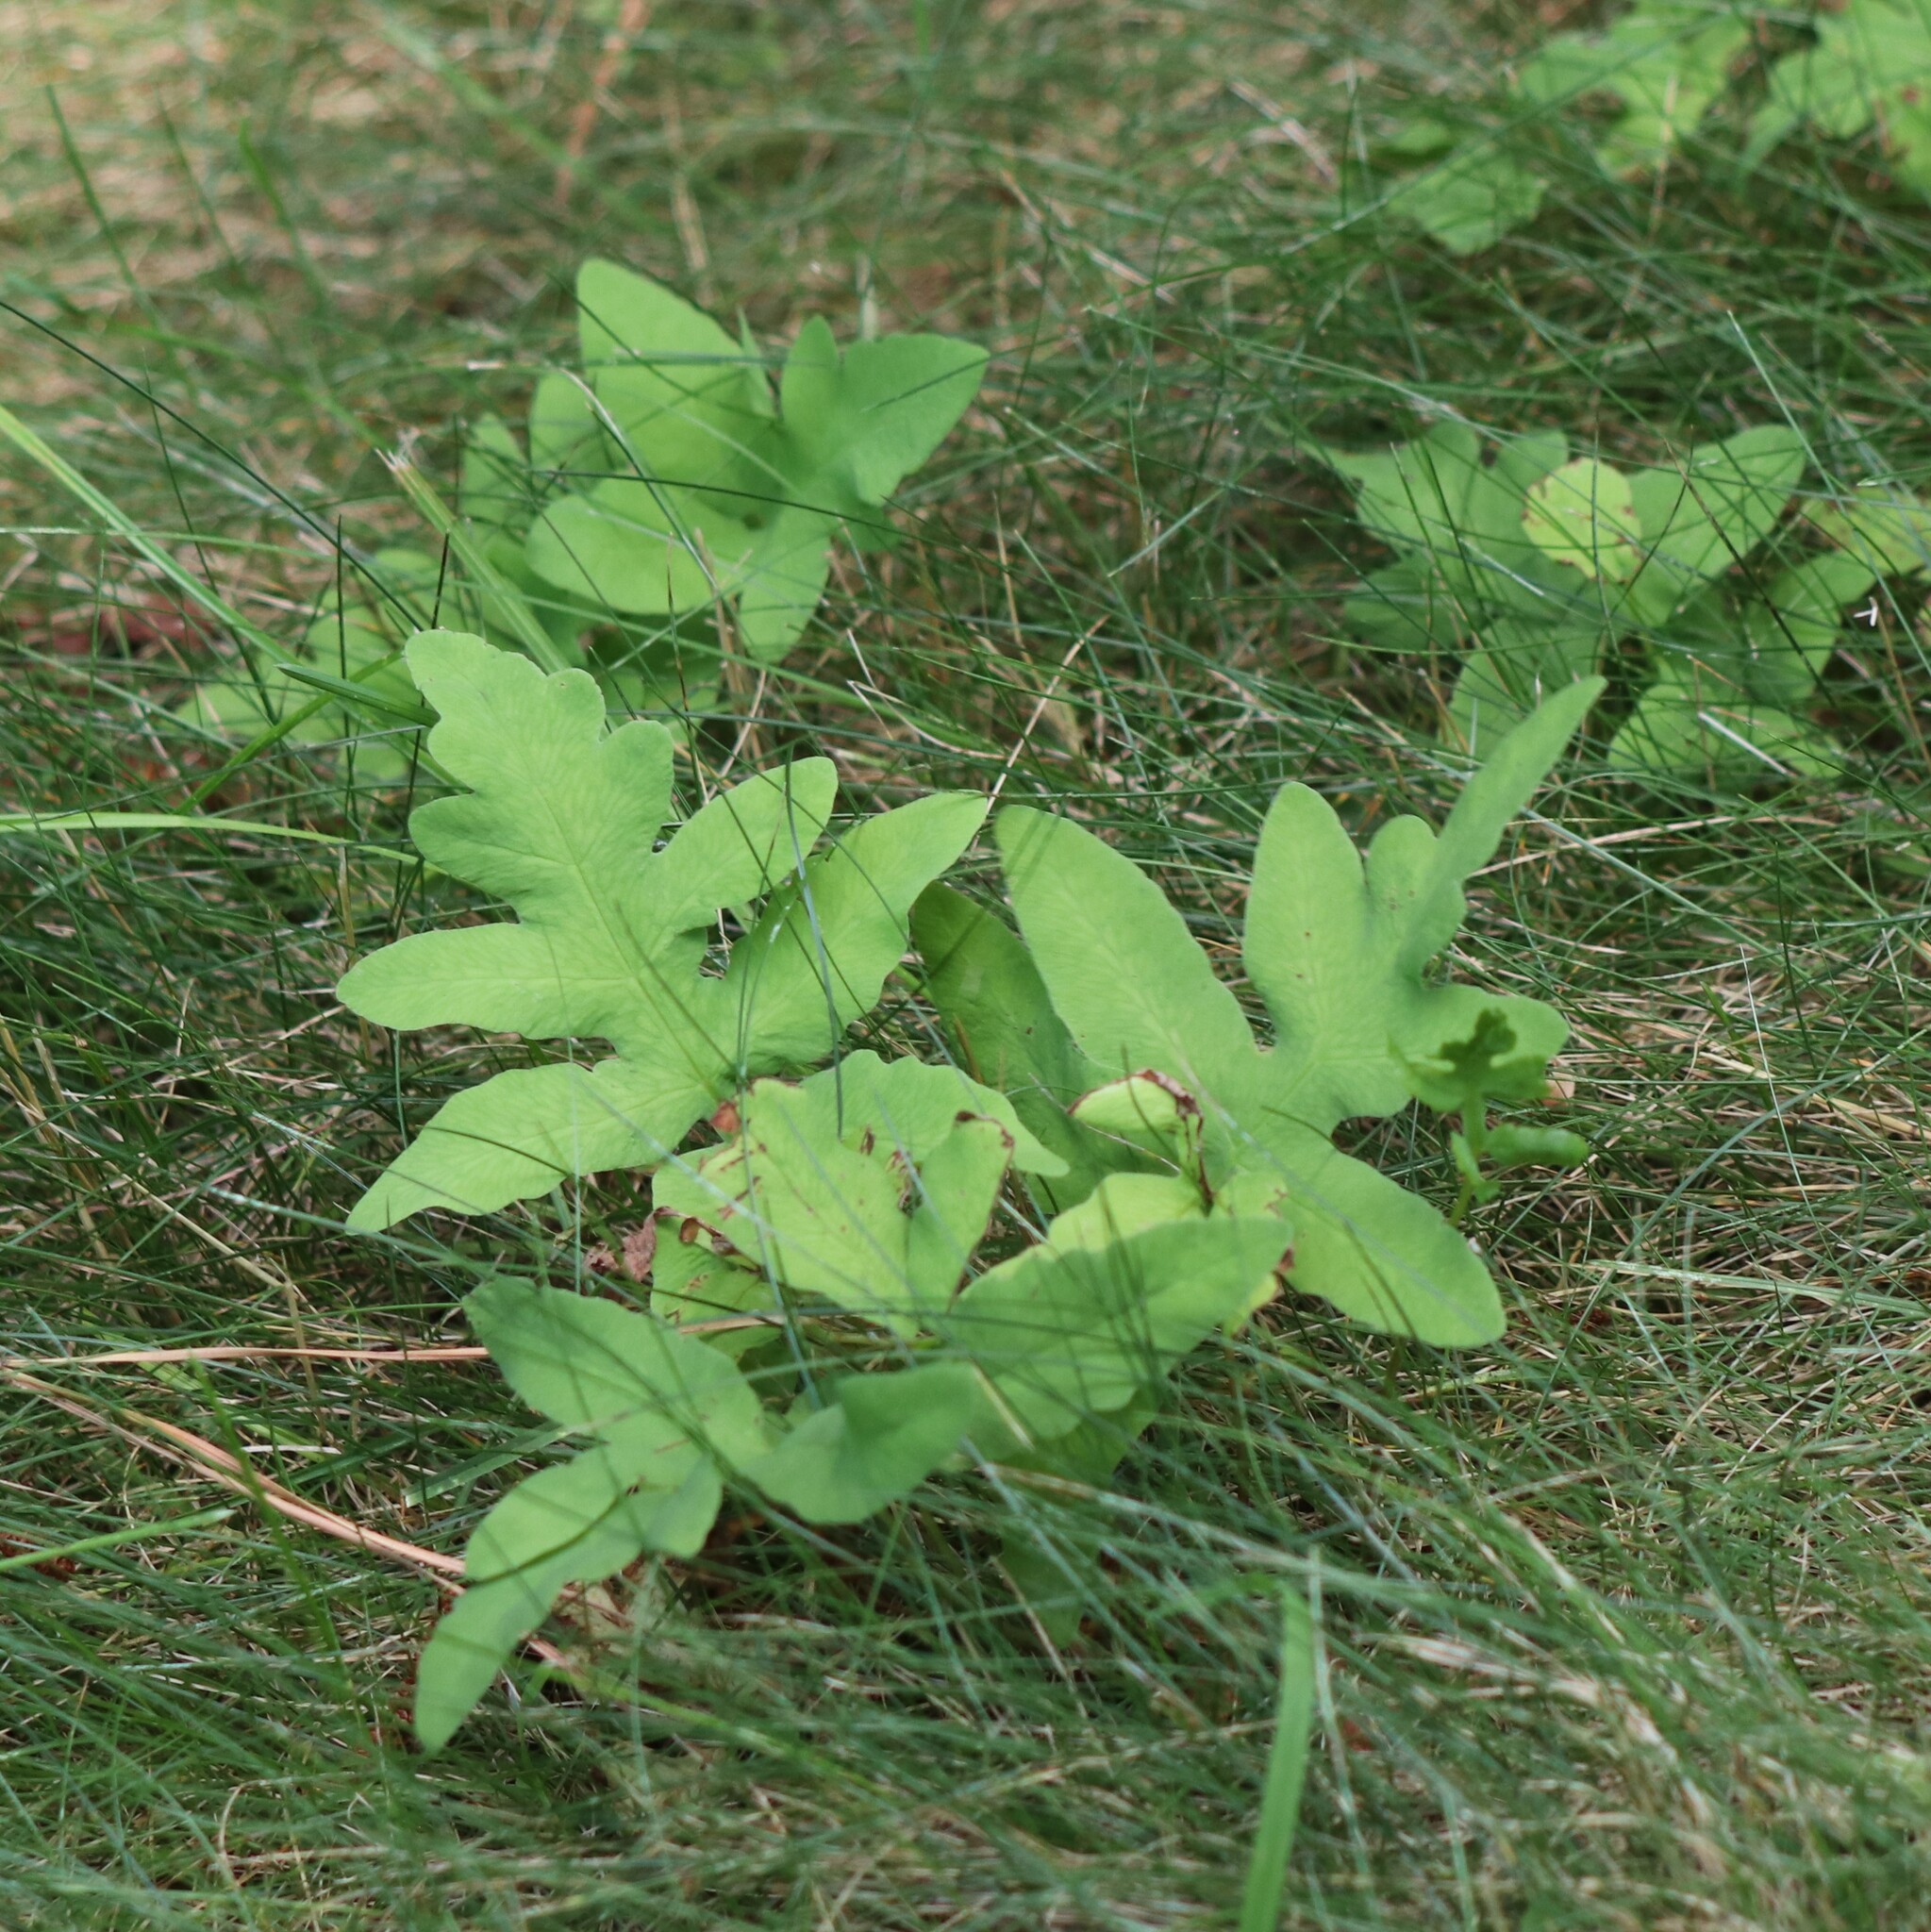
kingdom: Plantae
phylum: Tracheophyta
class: Polypodiopsida
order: Polypodiales
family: Onocleaceae
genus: Onoclea
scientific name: Onoclea sensibilis
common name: Sensitive fern
